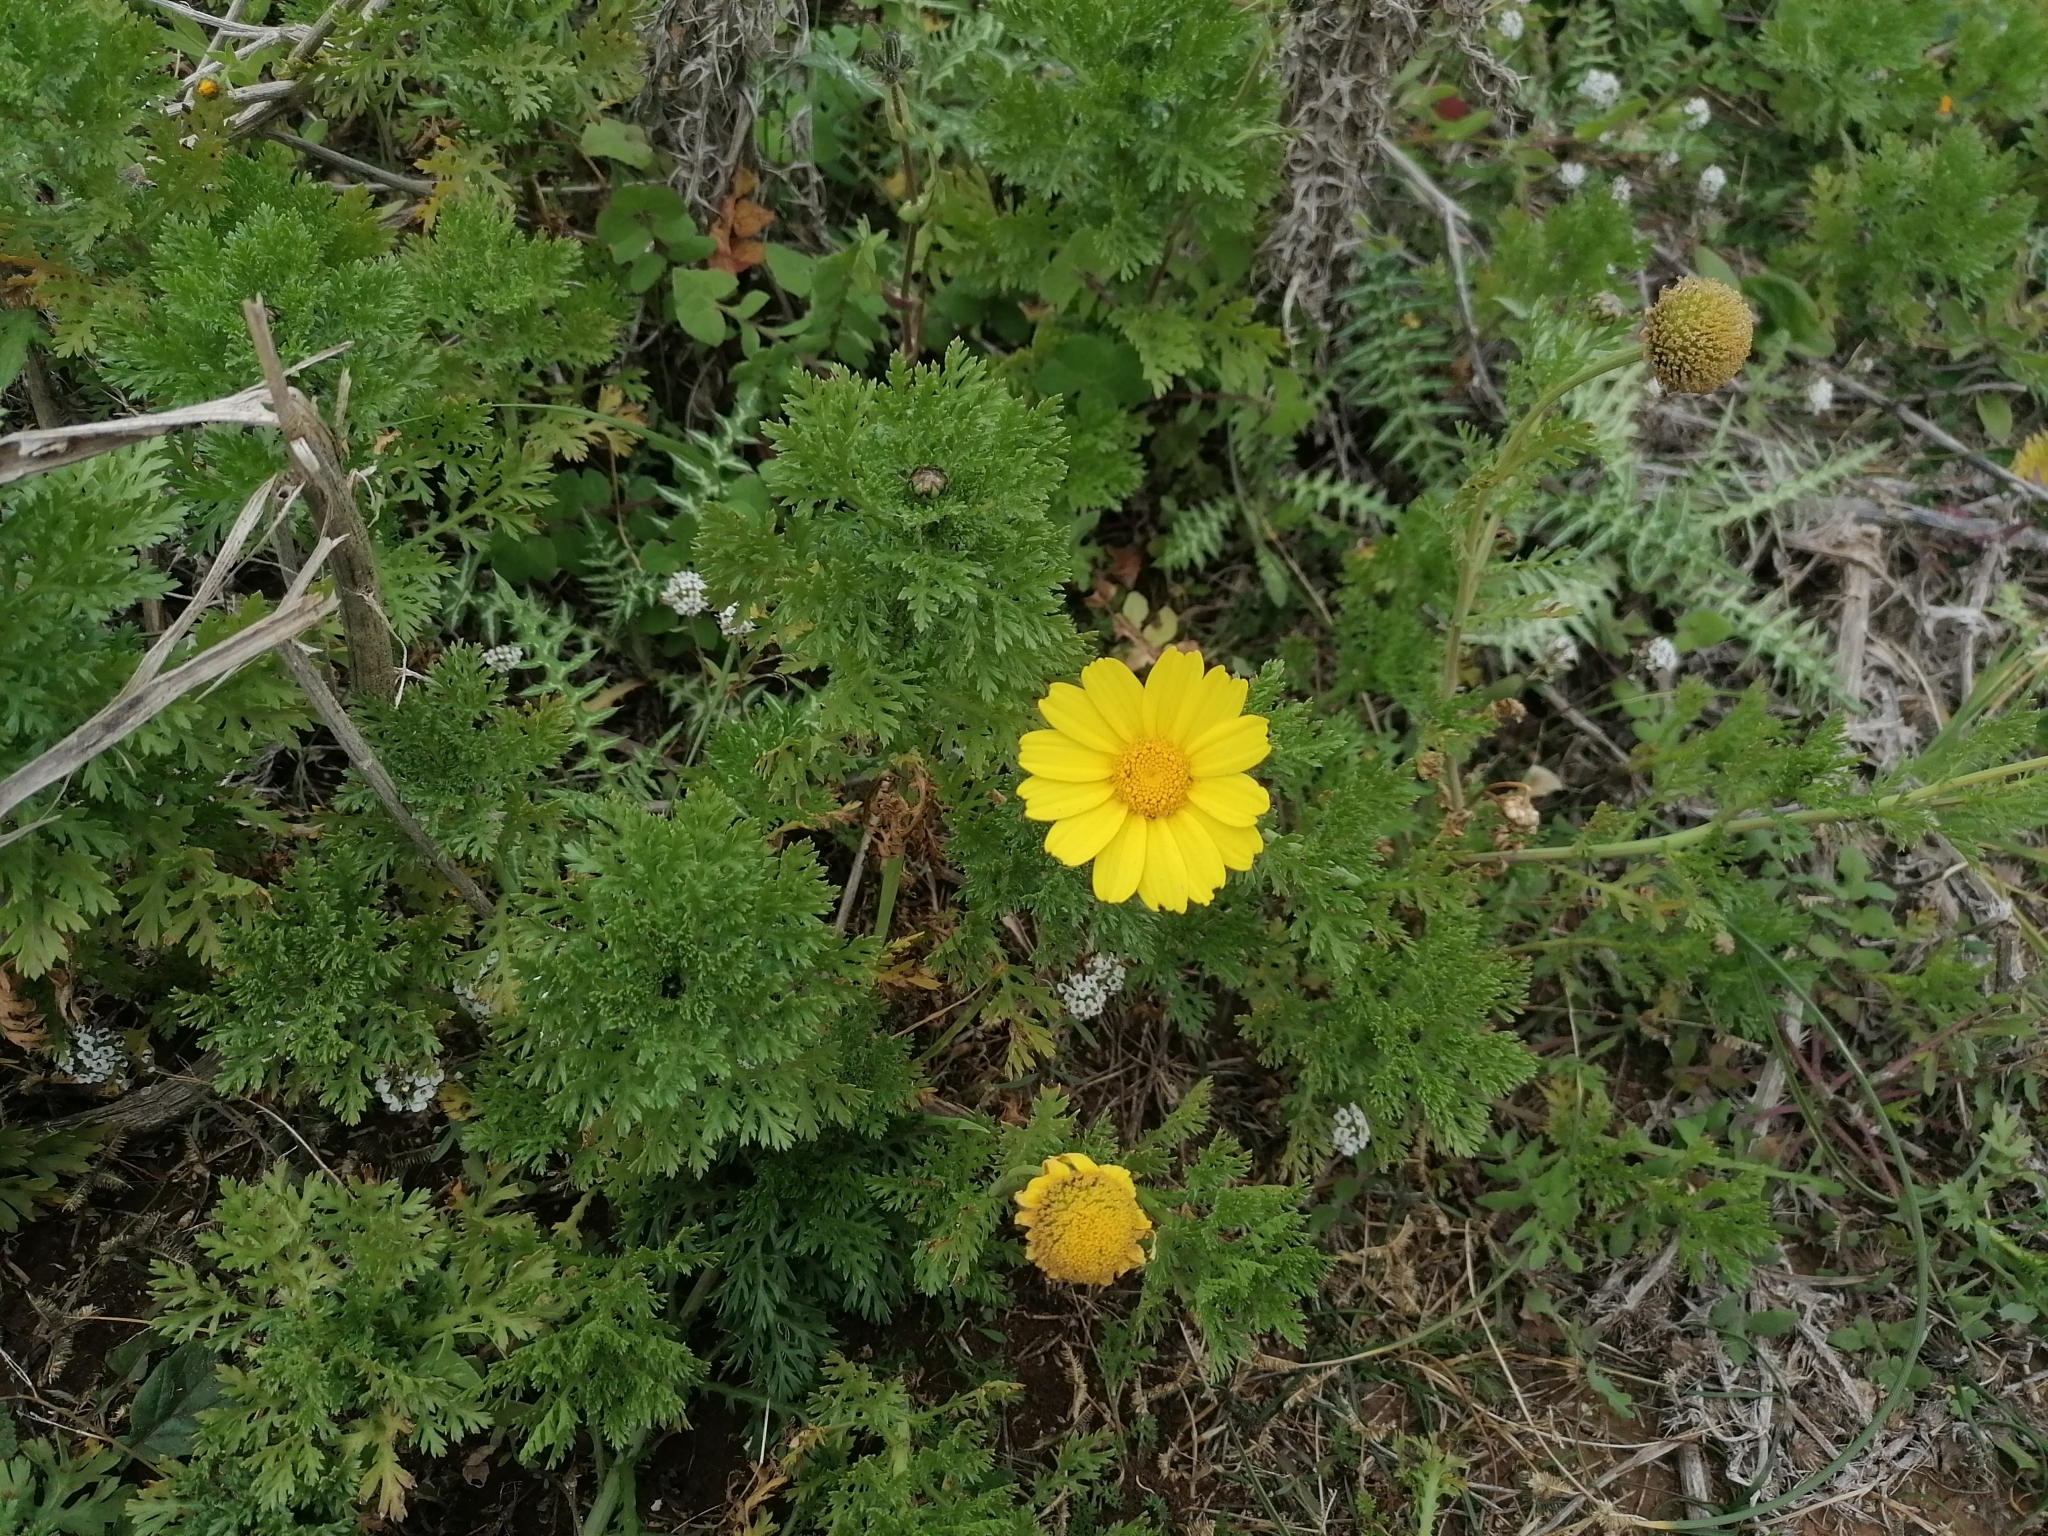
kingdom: Plantae
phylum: Tracheophyta
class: Magnoliopsida
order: Asterales
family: Asteraceae
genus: Glebionis
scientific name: Glebionis coronaria
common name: Crowndaisy
